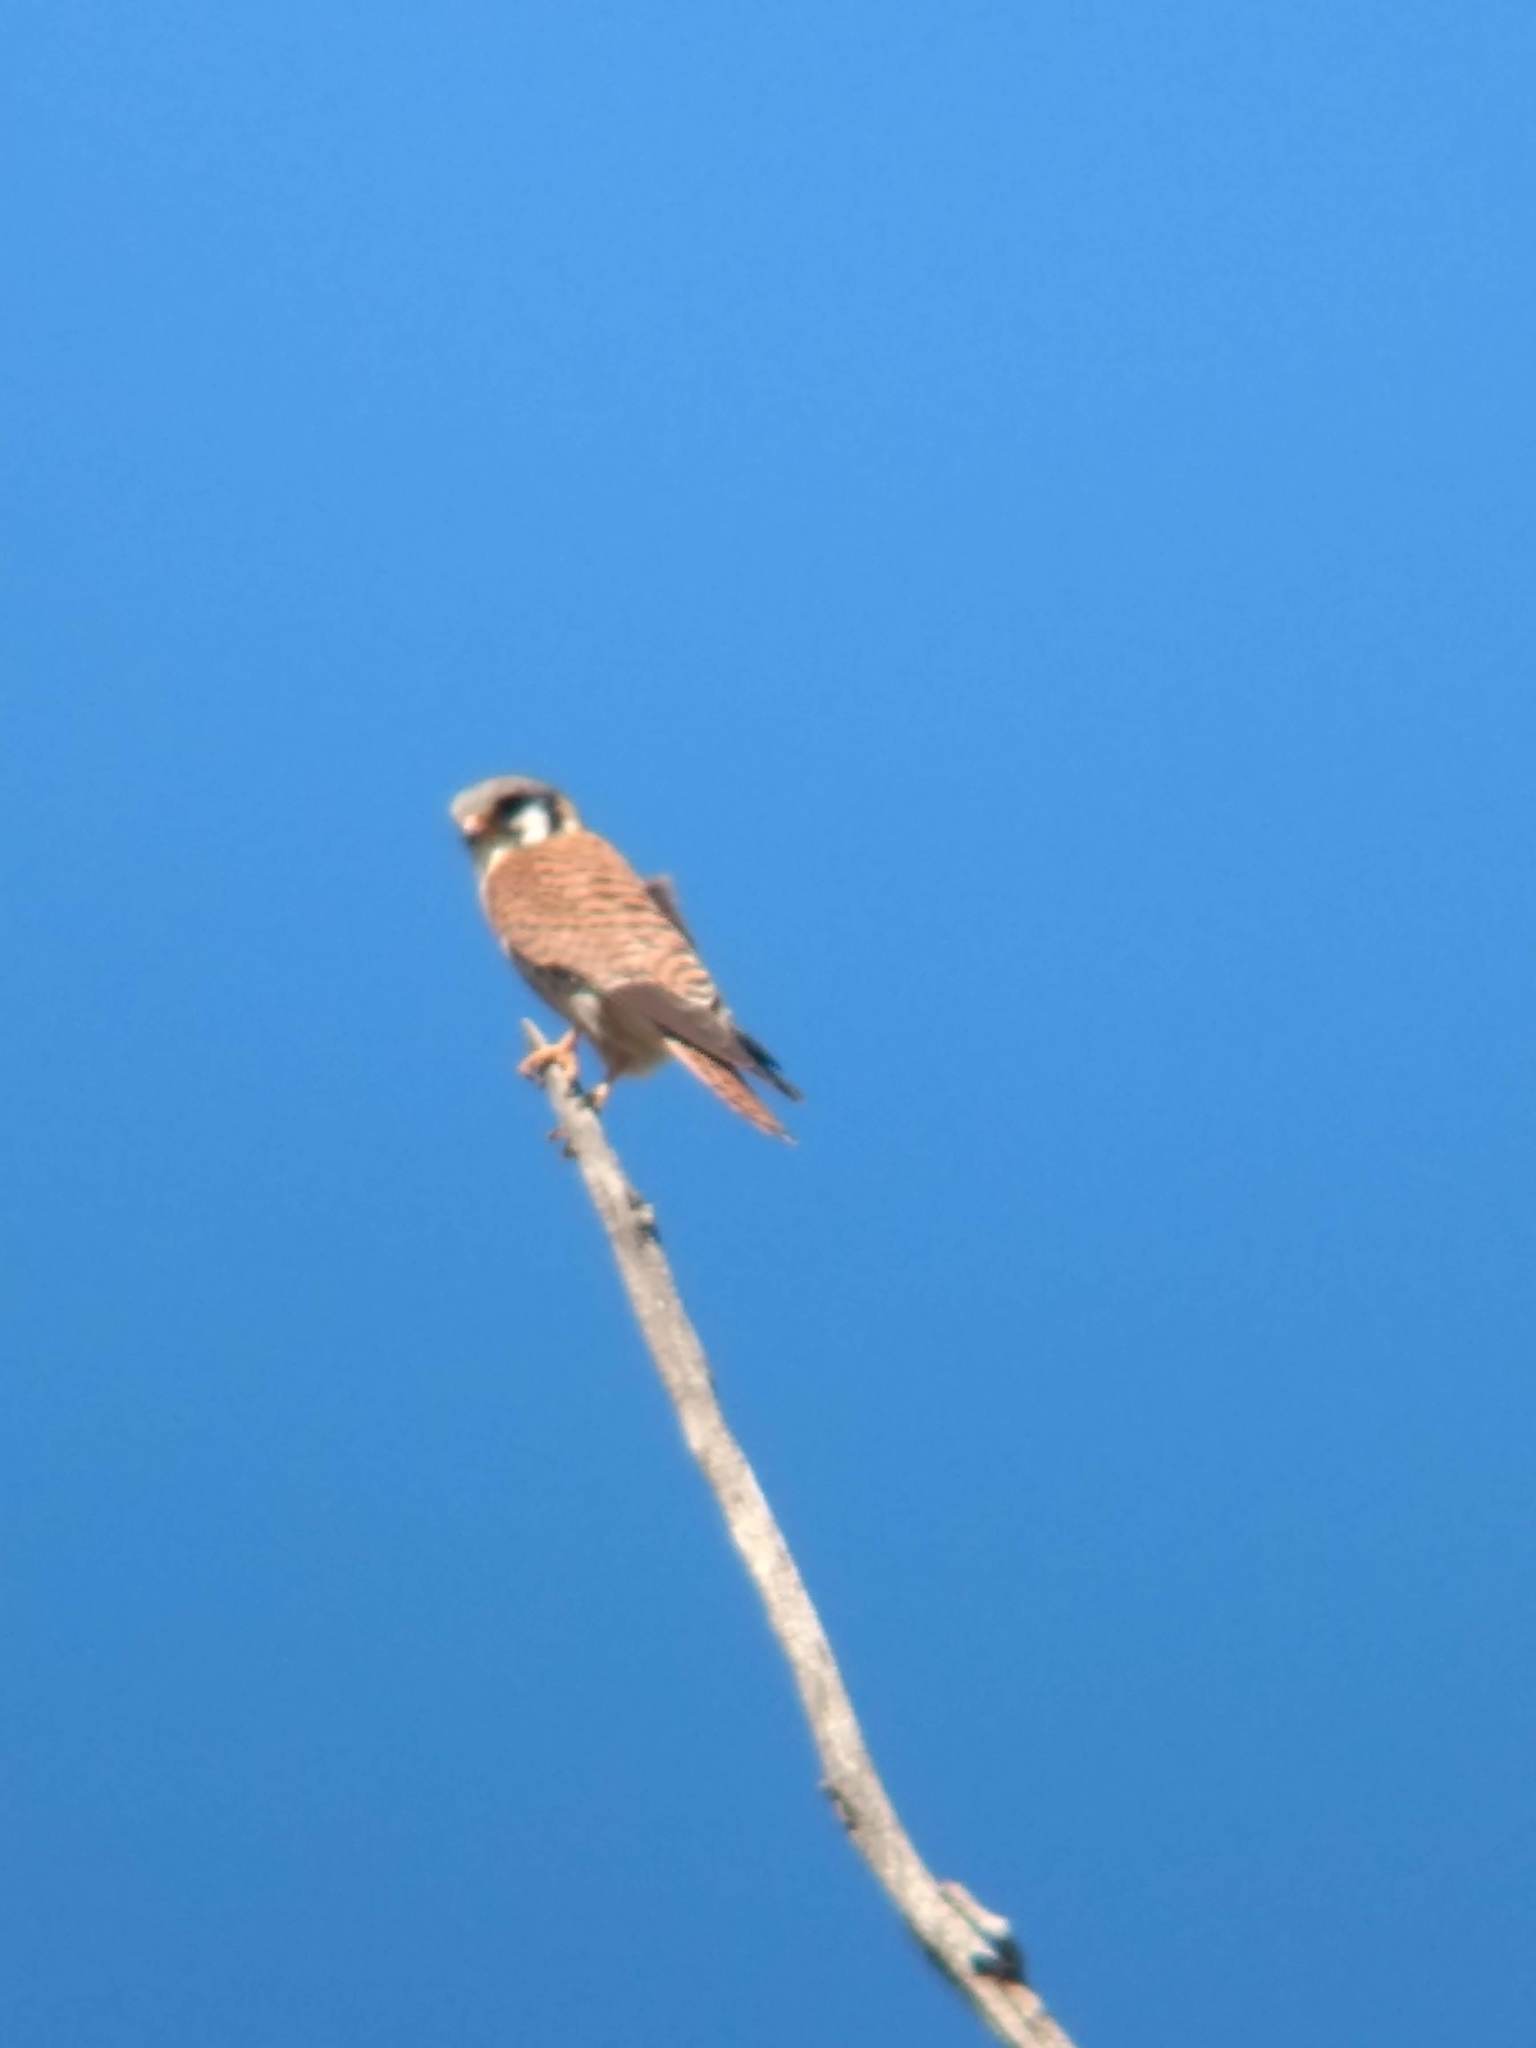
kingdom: Animalia
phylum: Chordata
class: Aves
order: Falconiformes
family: Falconidae
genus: Falco
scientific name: Falco sparverius
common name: American kestrel
